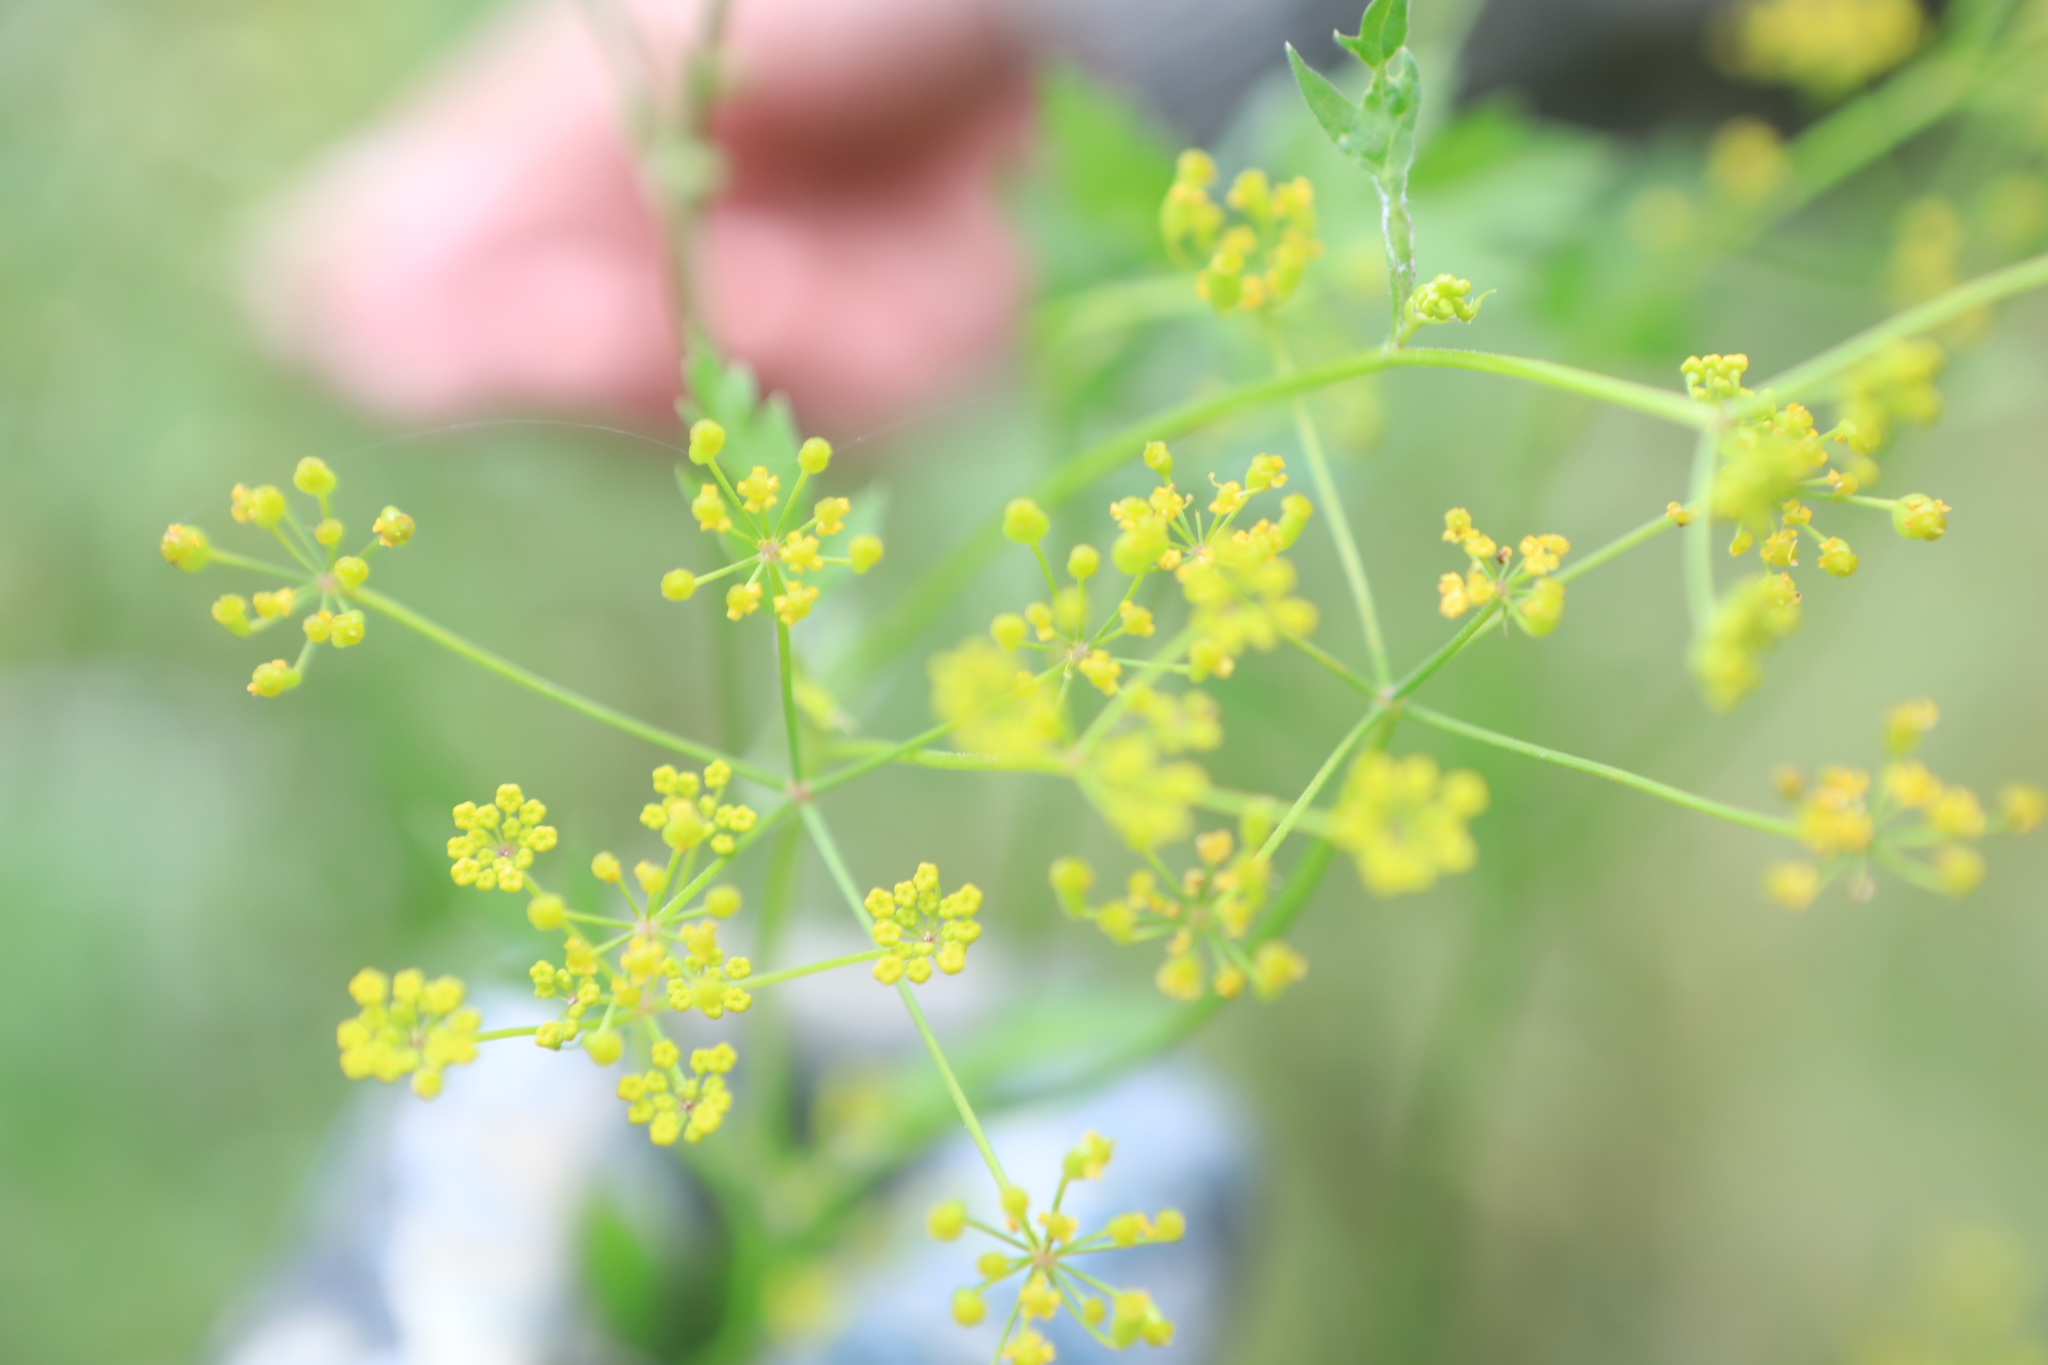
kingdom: Plantae
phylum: Tracheophyta
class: Magnoliopsida
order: Apiales
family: Apiaceae
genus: Pastinaca
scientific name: Pastinaca sativa
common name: Wild parsnip
